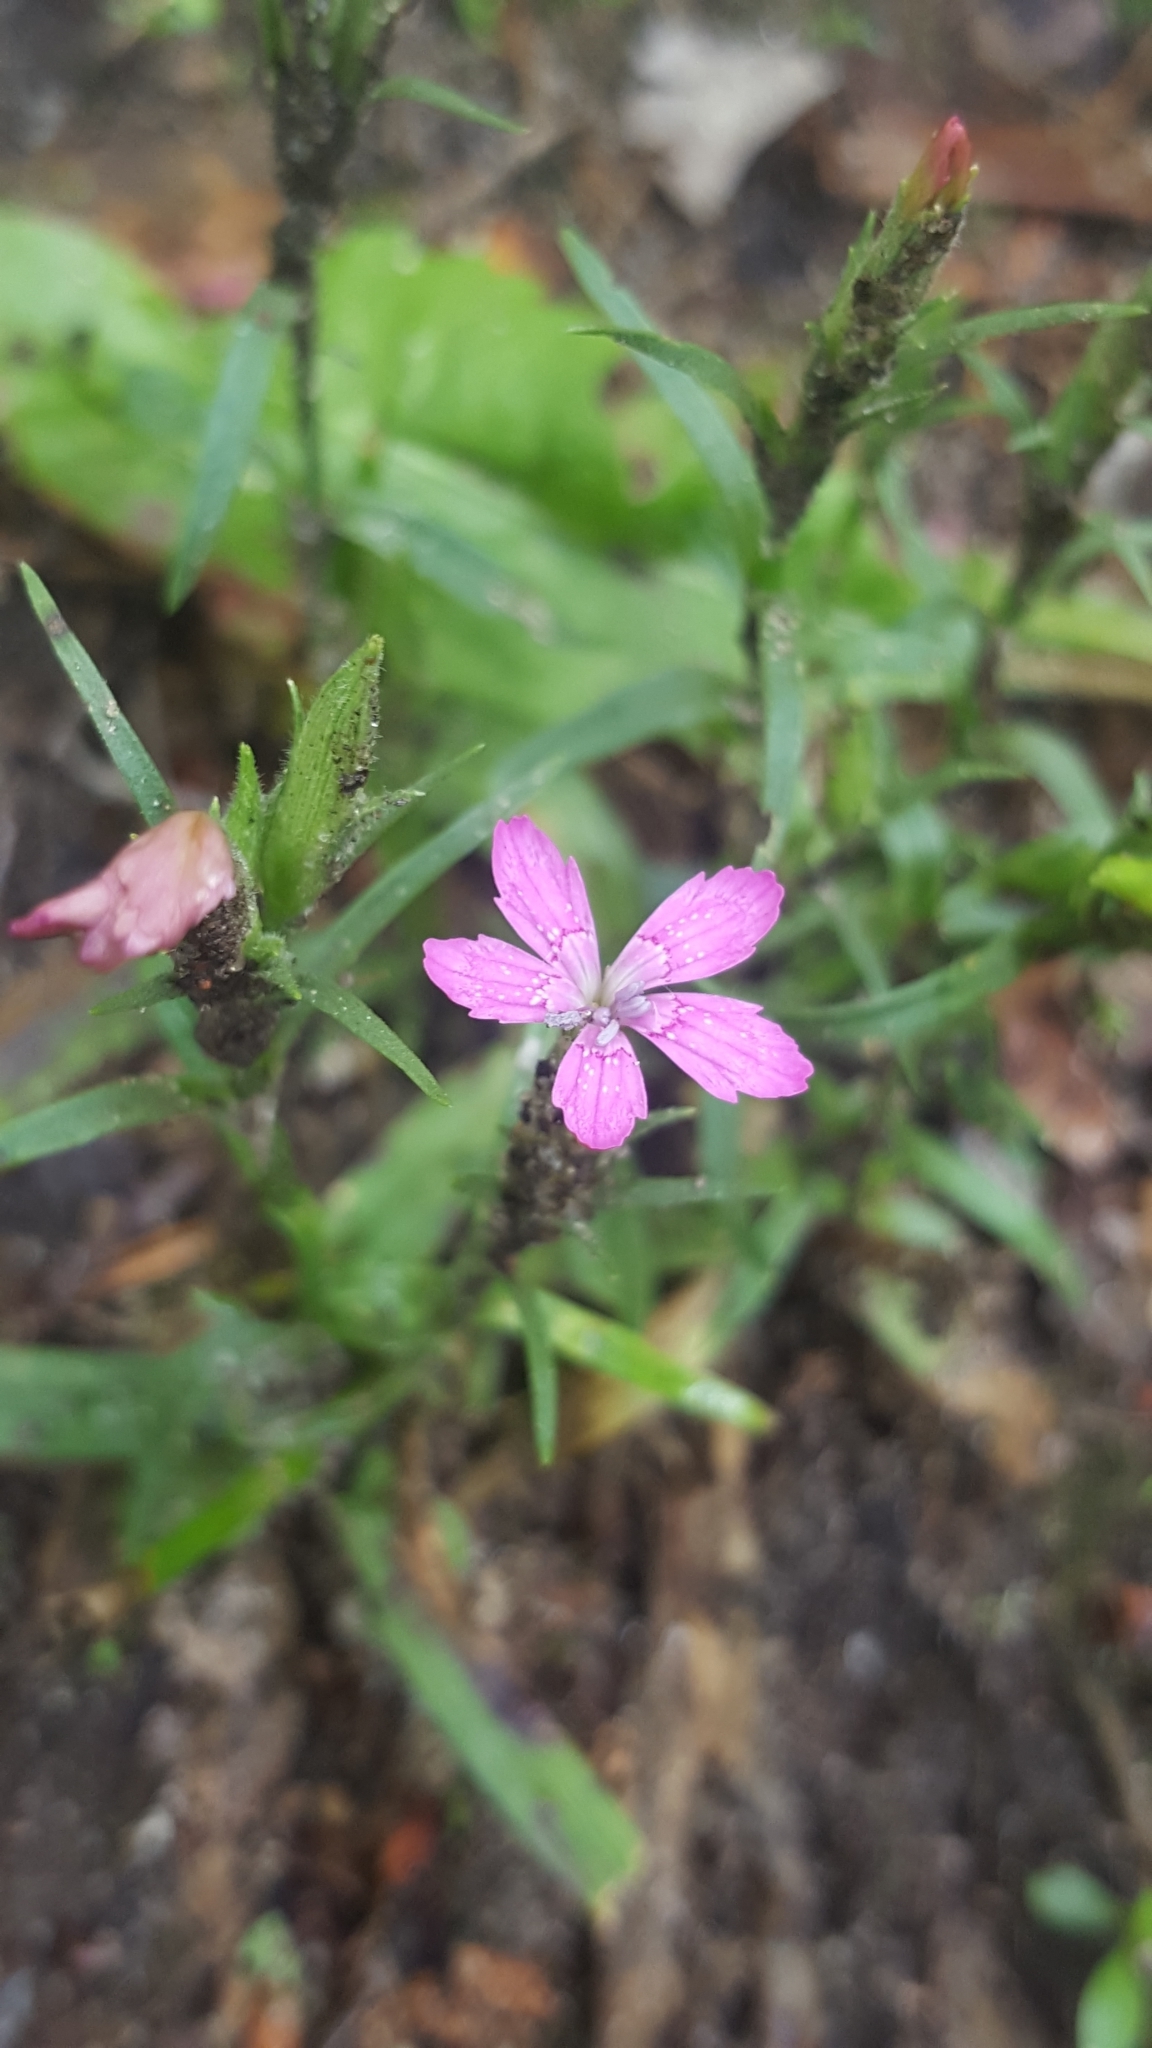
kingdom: Plantae
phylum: Tracheophyta
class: Magnoliopsida
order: Caryophyllales
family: Caryophyllaceae
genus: Dianthus
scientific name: Dianthus armeria
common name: Deptford pink
